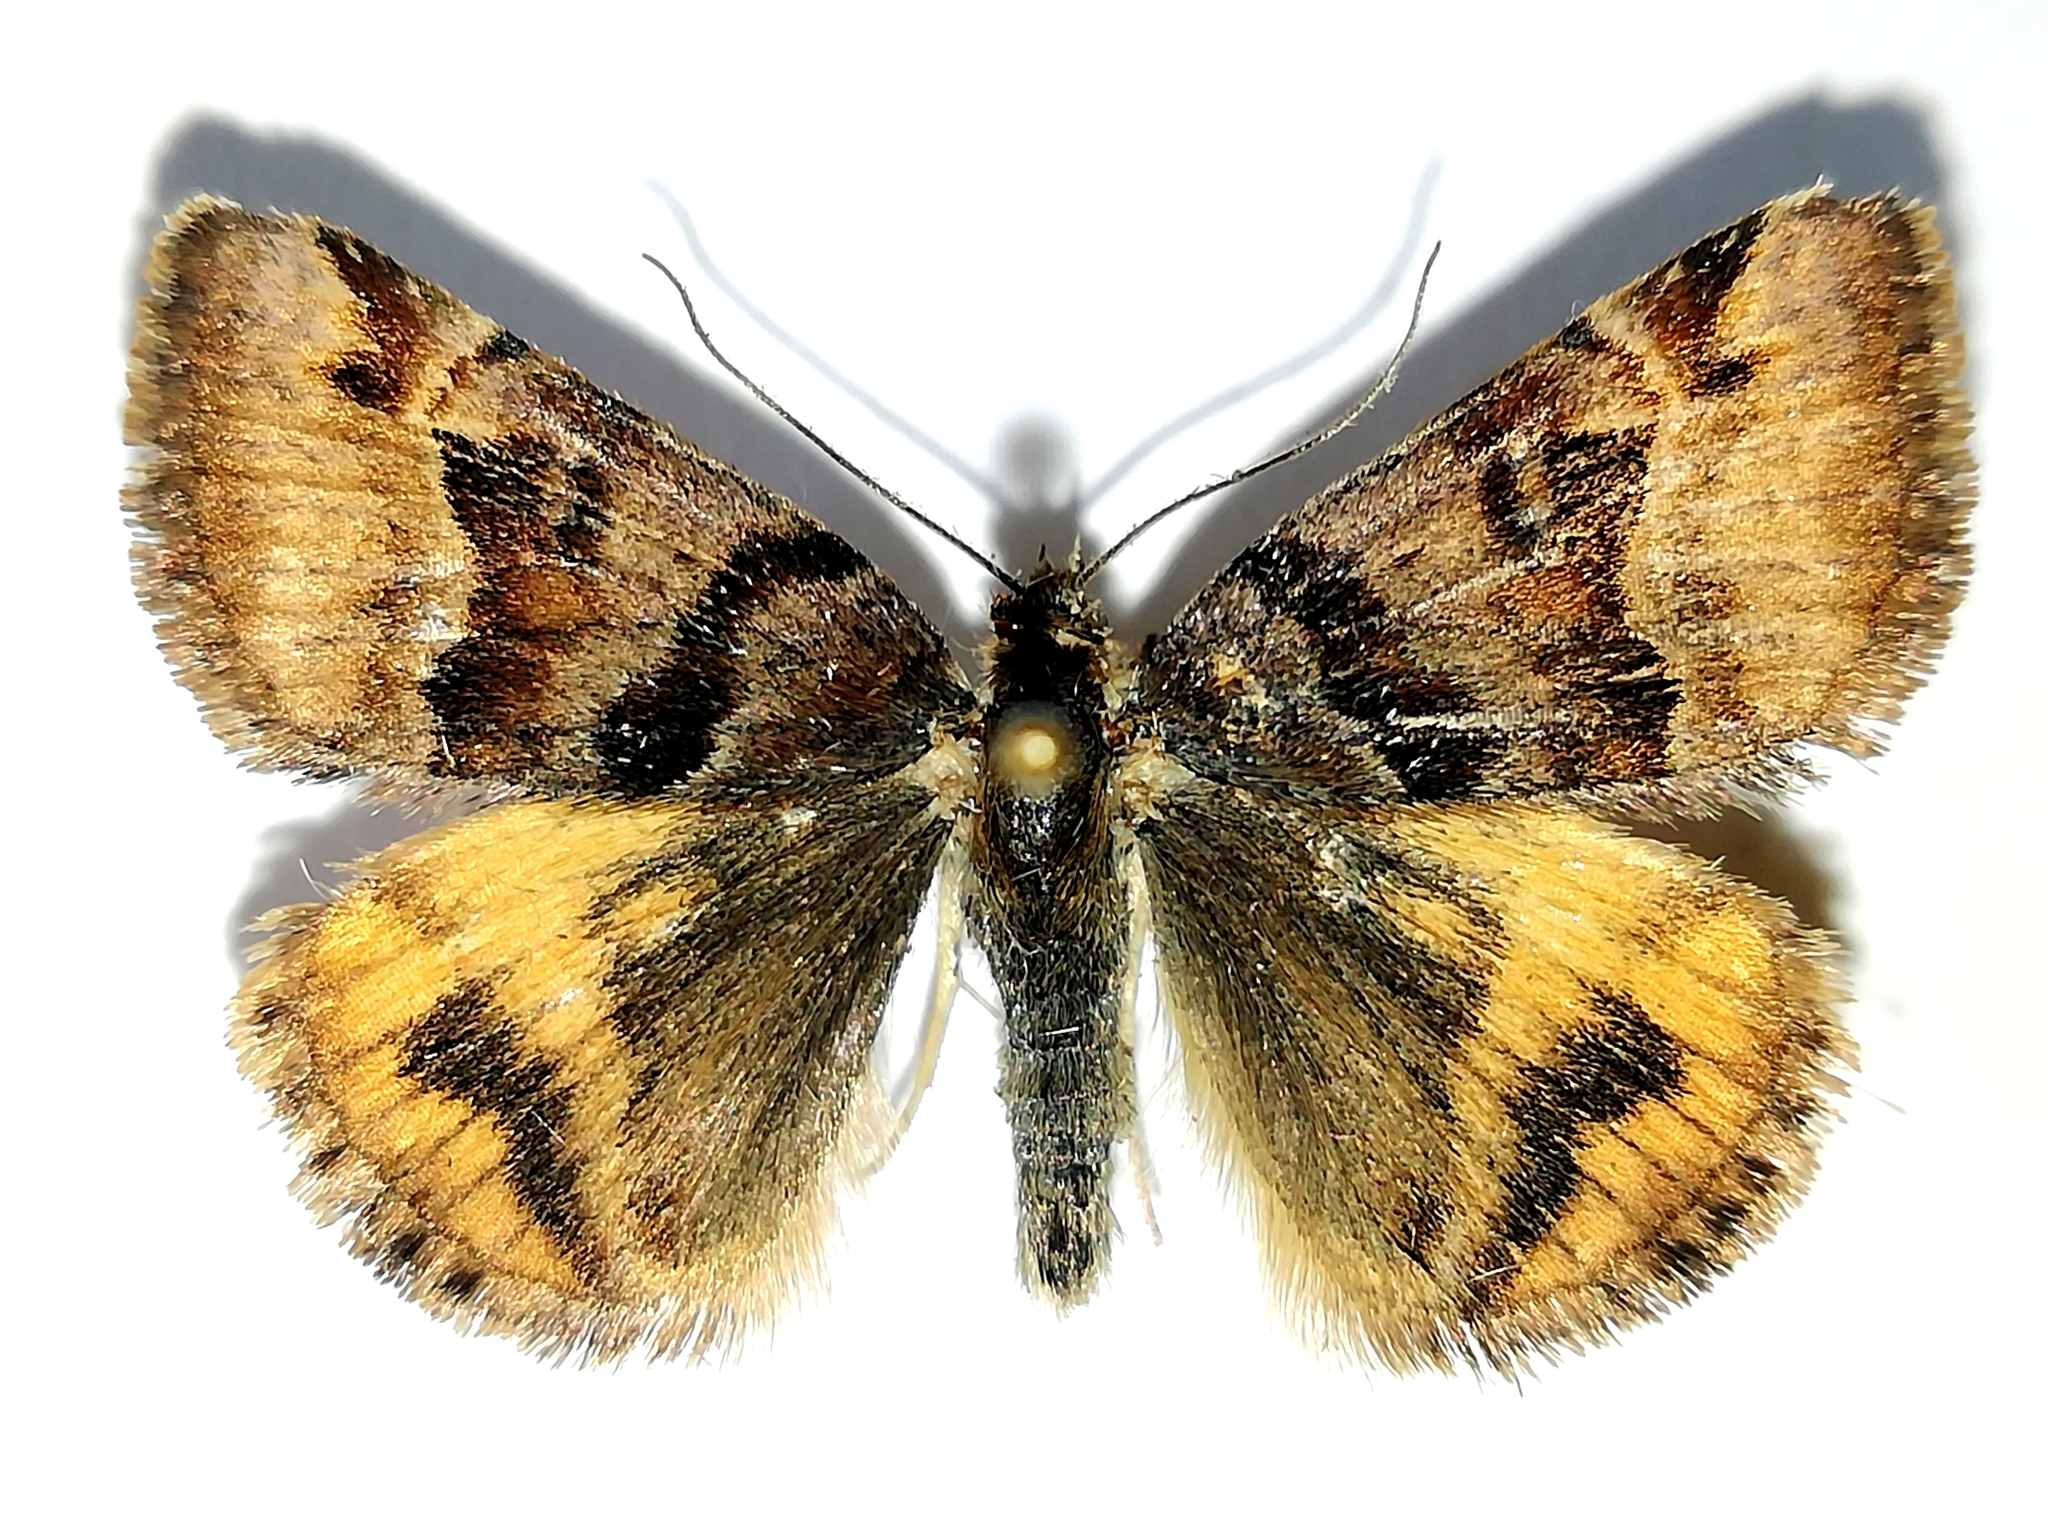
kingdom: Animalia
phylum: Arthropoda
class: Insecta
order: Lepidoptera
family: Erebidae
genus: Euclidia
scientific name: Euclidia glyphica
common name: Burnet companion
